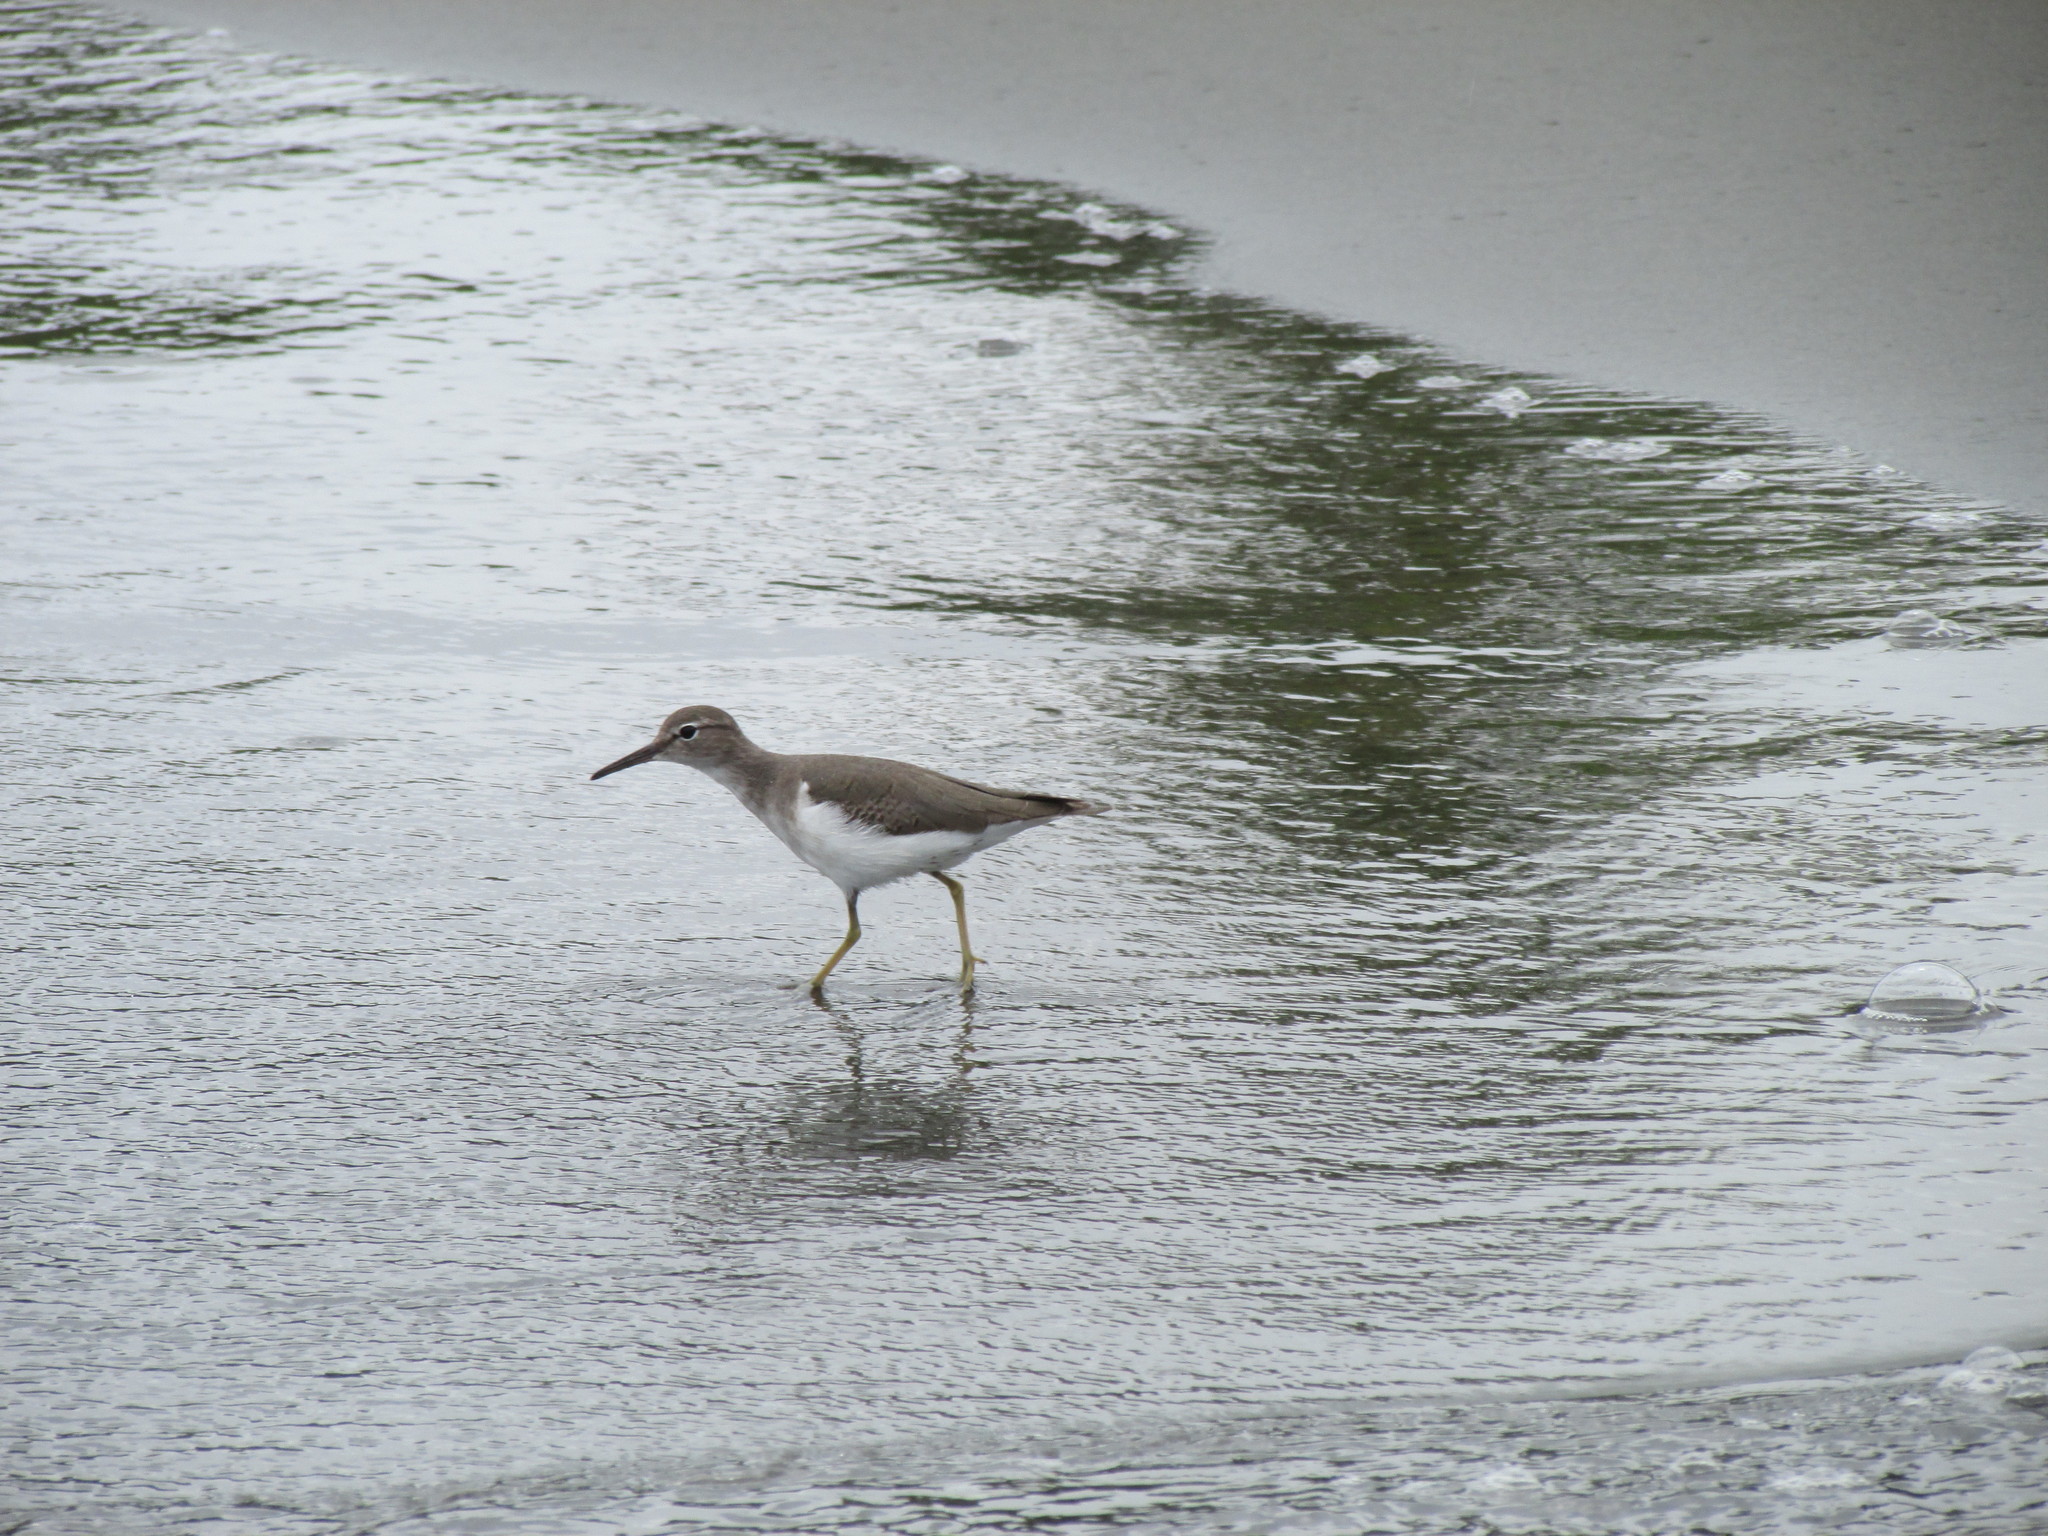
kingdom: Animalia
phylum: Chordata
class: Aves
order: Charadriiformes
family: Scolopacidae
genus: Actitis
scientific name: Actitis macularius
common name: Spotted sandpiper
